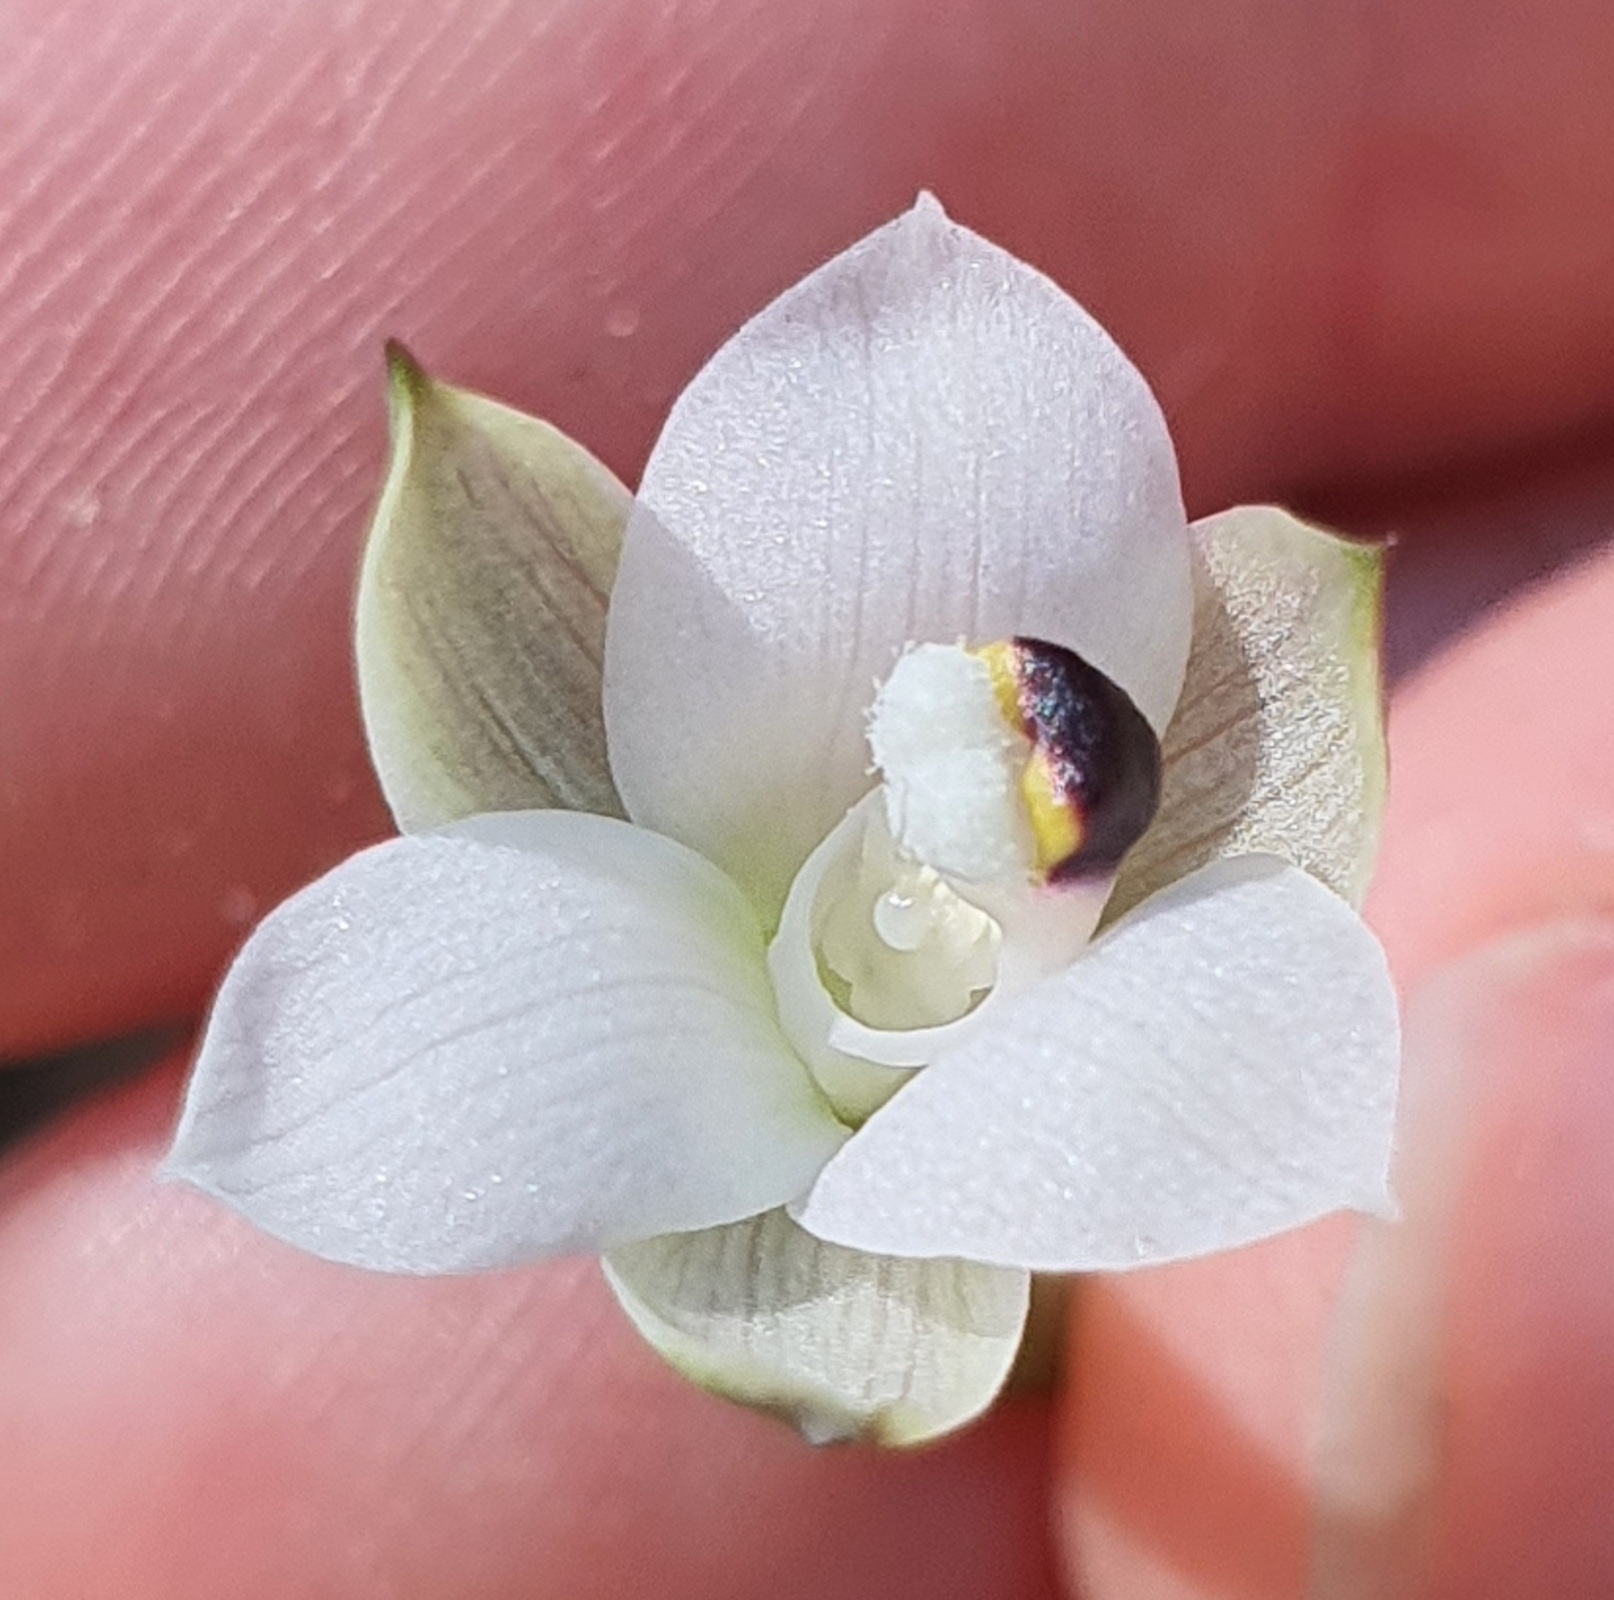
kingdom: Plantae
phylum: Tracheophyta
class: Liliopsida
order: Asparagales
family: Orchidaceae
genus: Thelymitra
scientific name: Thelymitra longifolia
